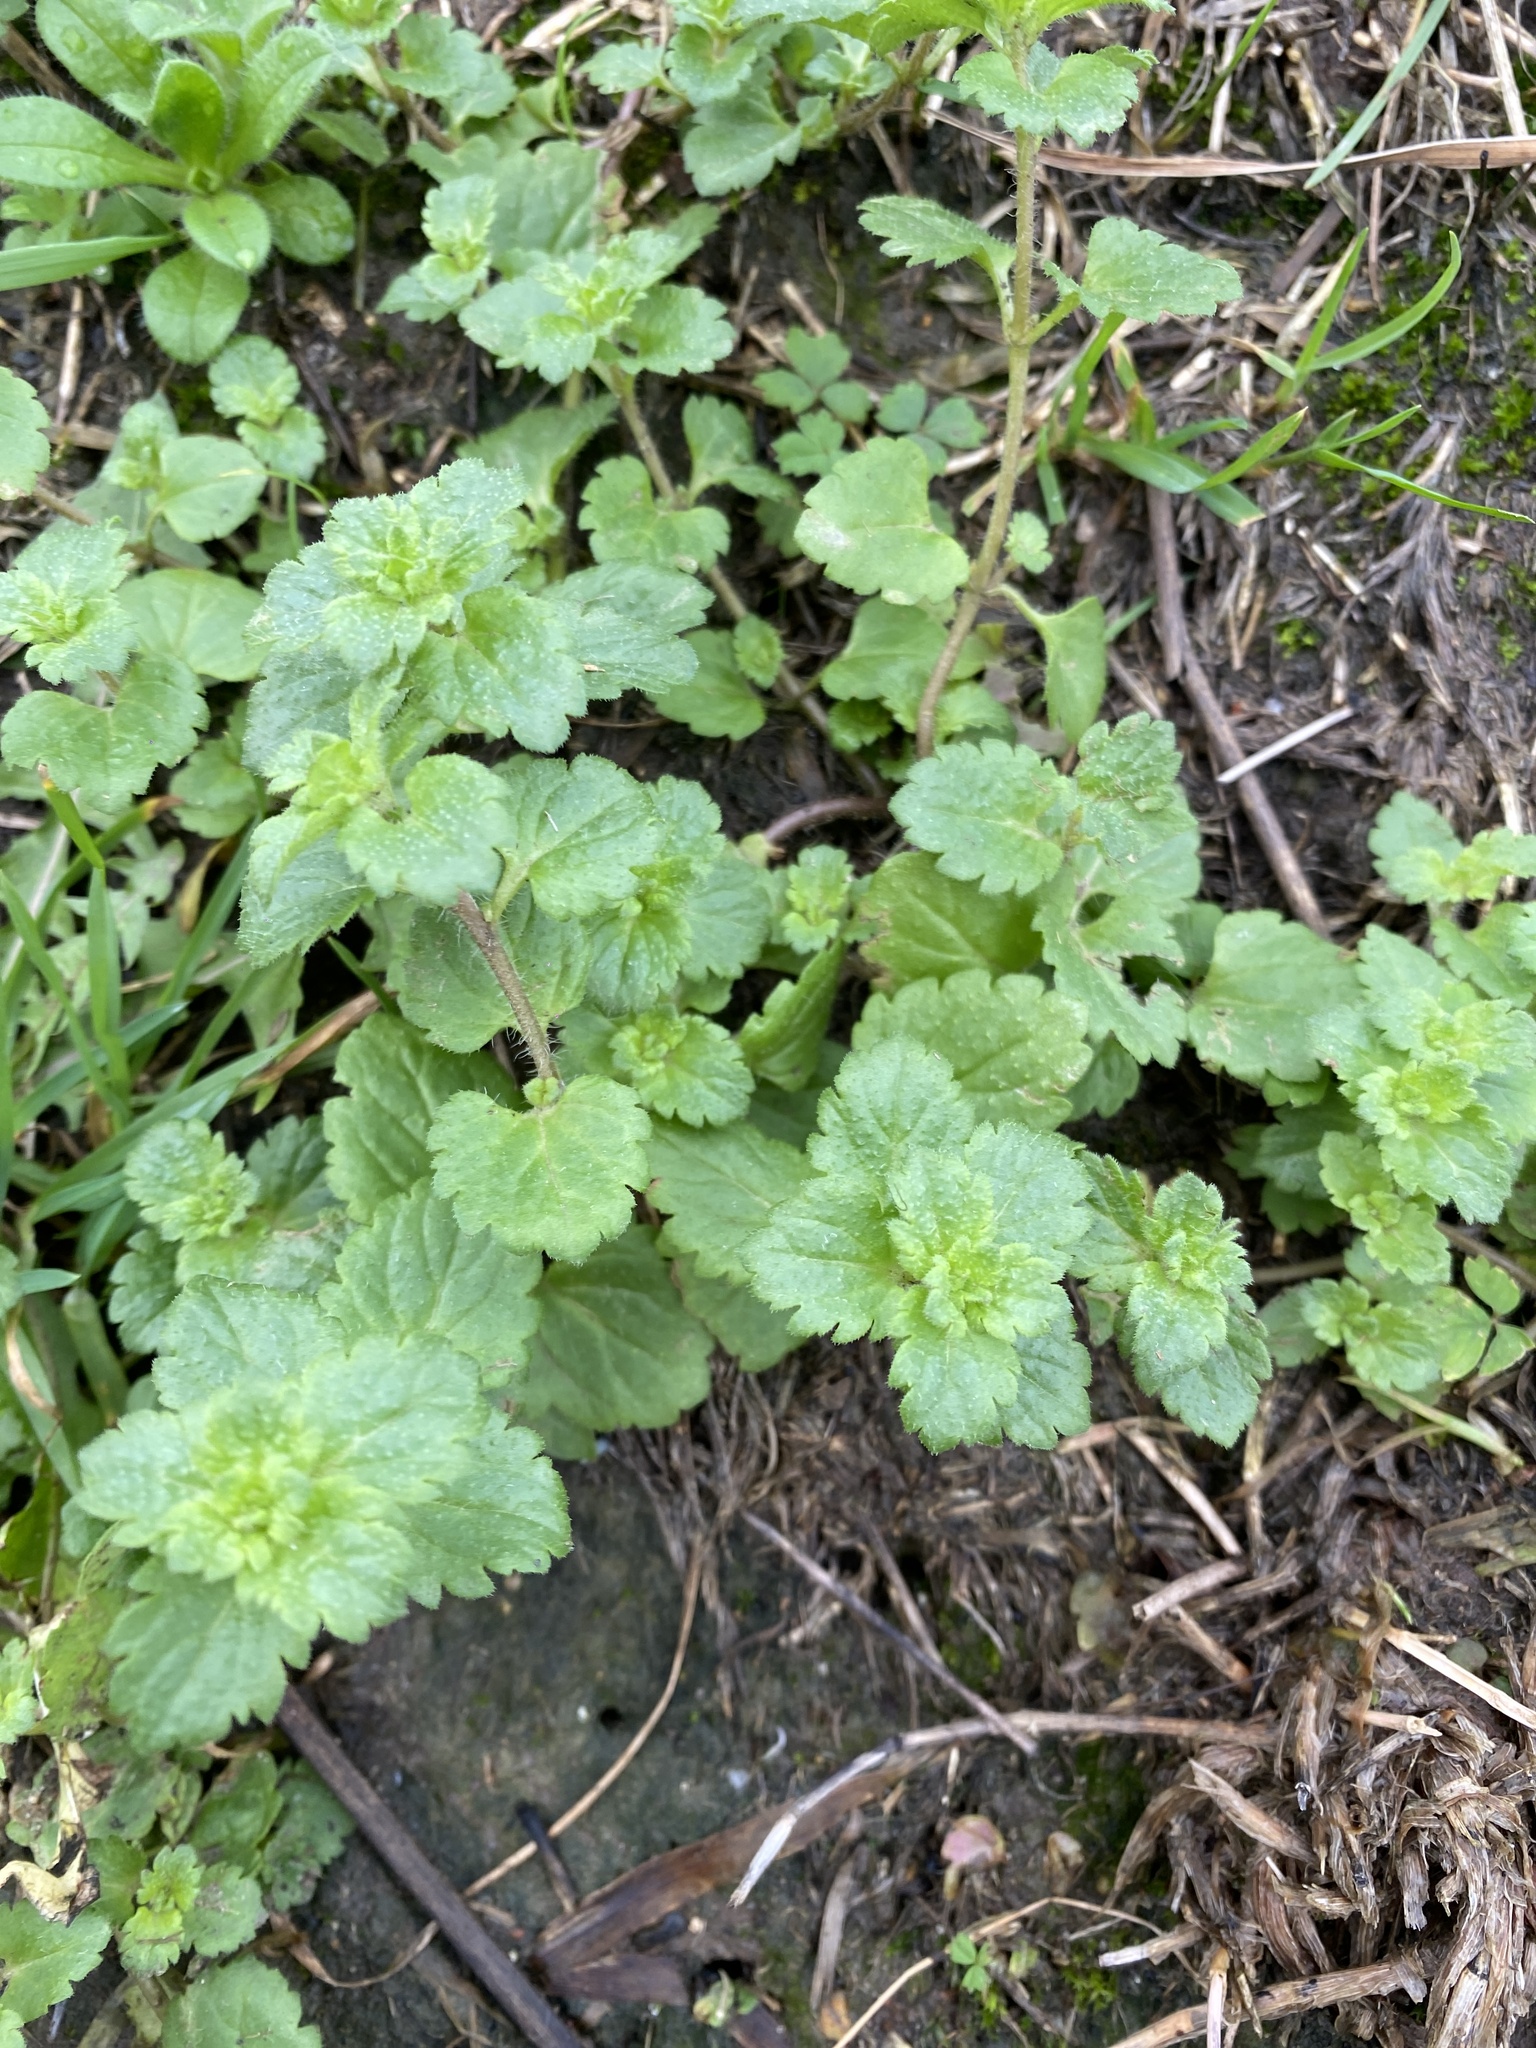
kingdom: Plantae
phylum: Tracheophyta
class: Magnoliopsida
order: Lamiales
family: Plantaginaceae
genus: Veronica
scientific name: Veronica persica
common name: Common field-speedwell
